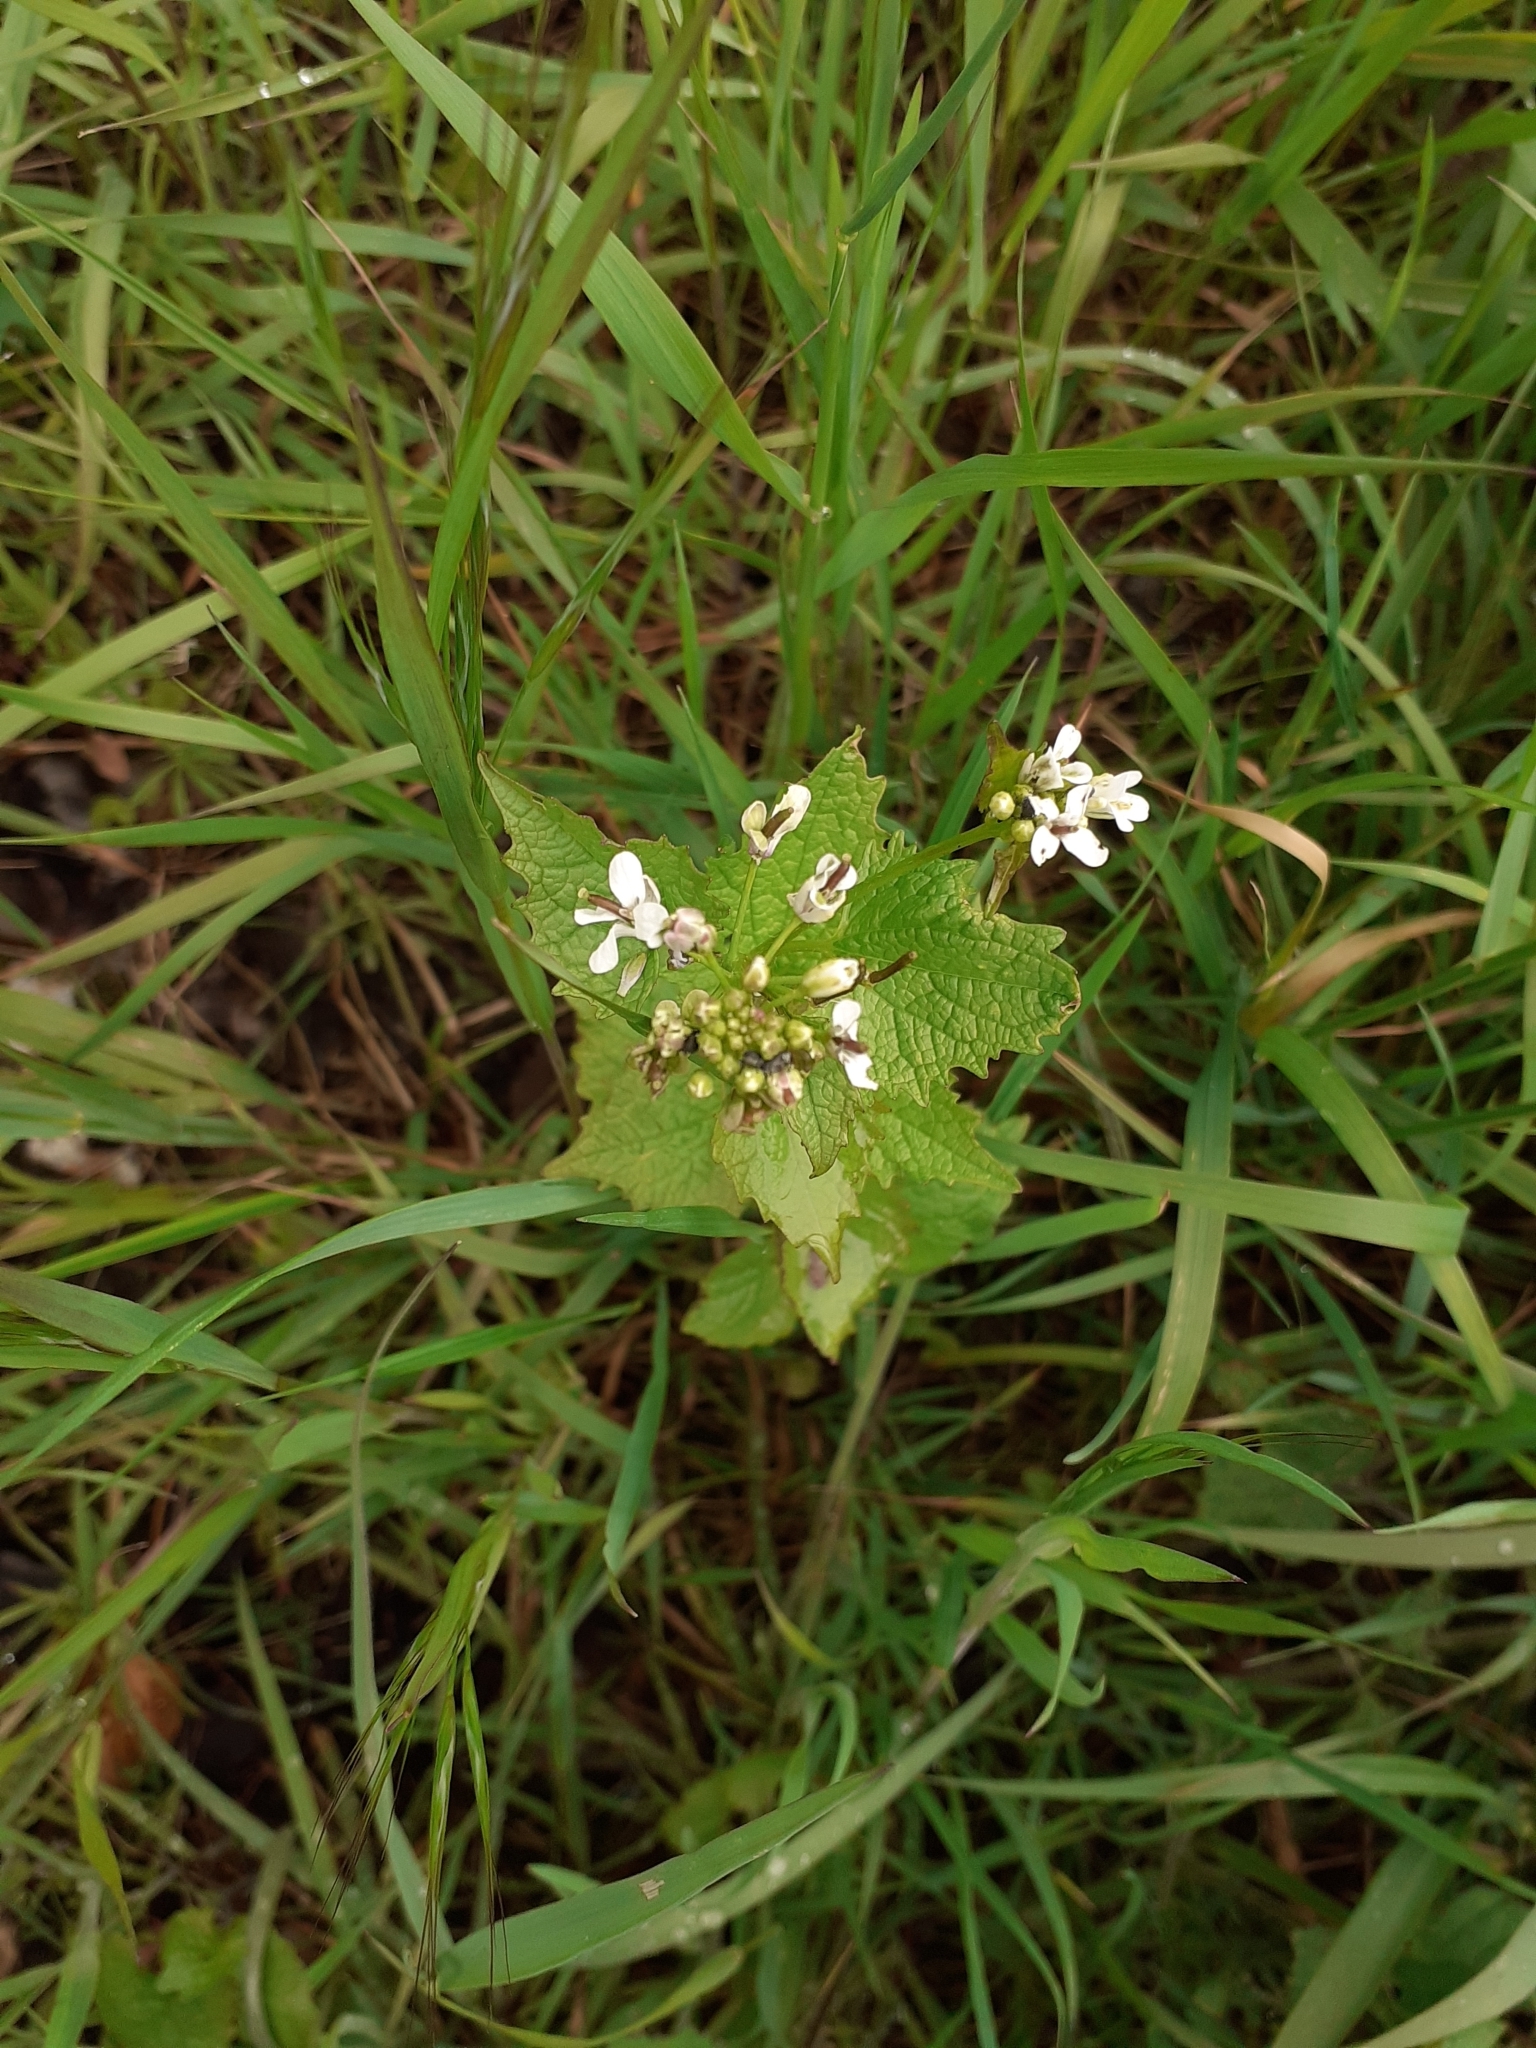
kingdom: Plantae
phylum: Tracheophyta
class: Magnoliopsida
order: Brassicales
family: Brassicaceae
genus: Alliaria
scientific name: Alliaria petiolata
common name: Garlic mustard
